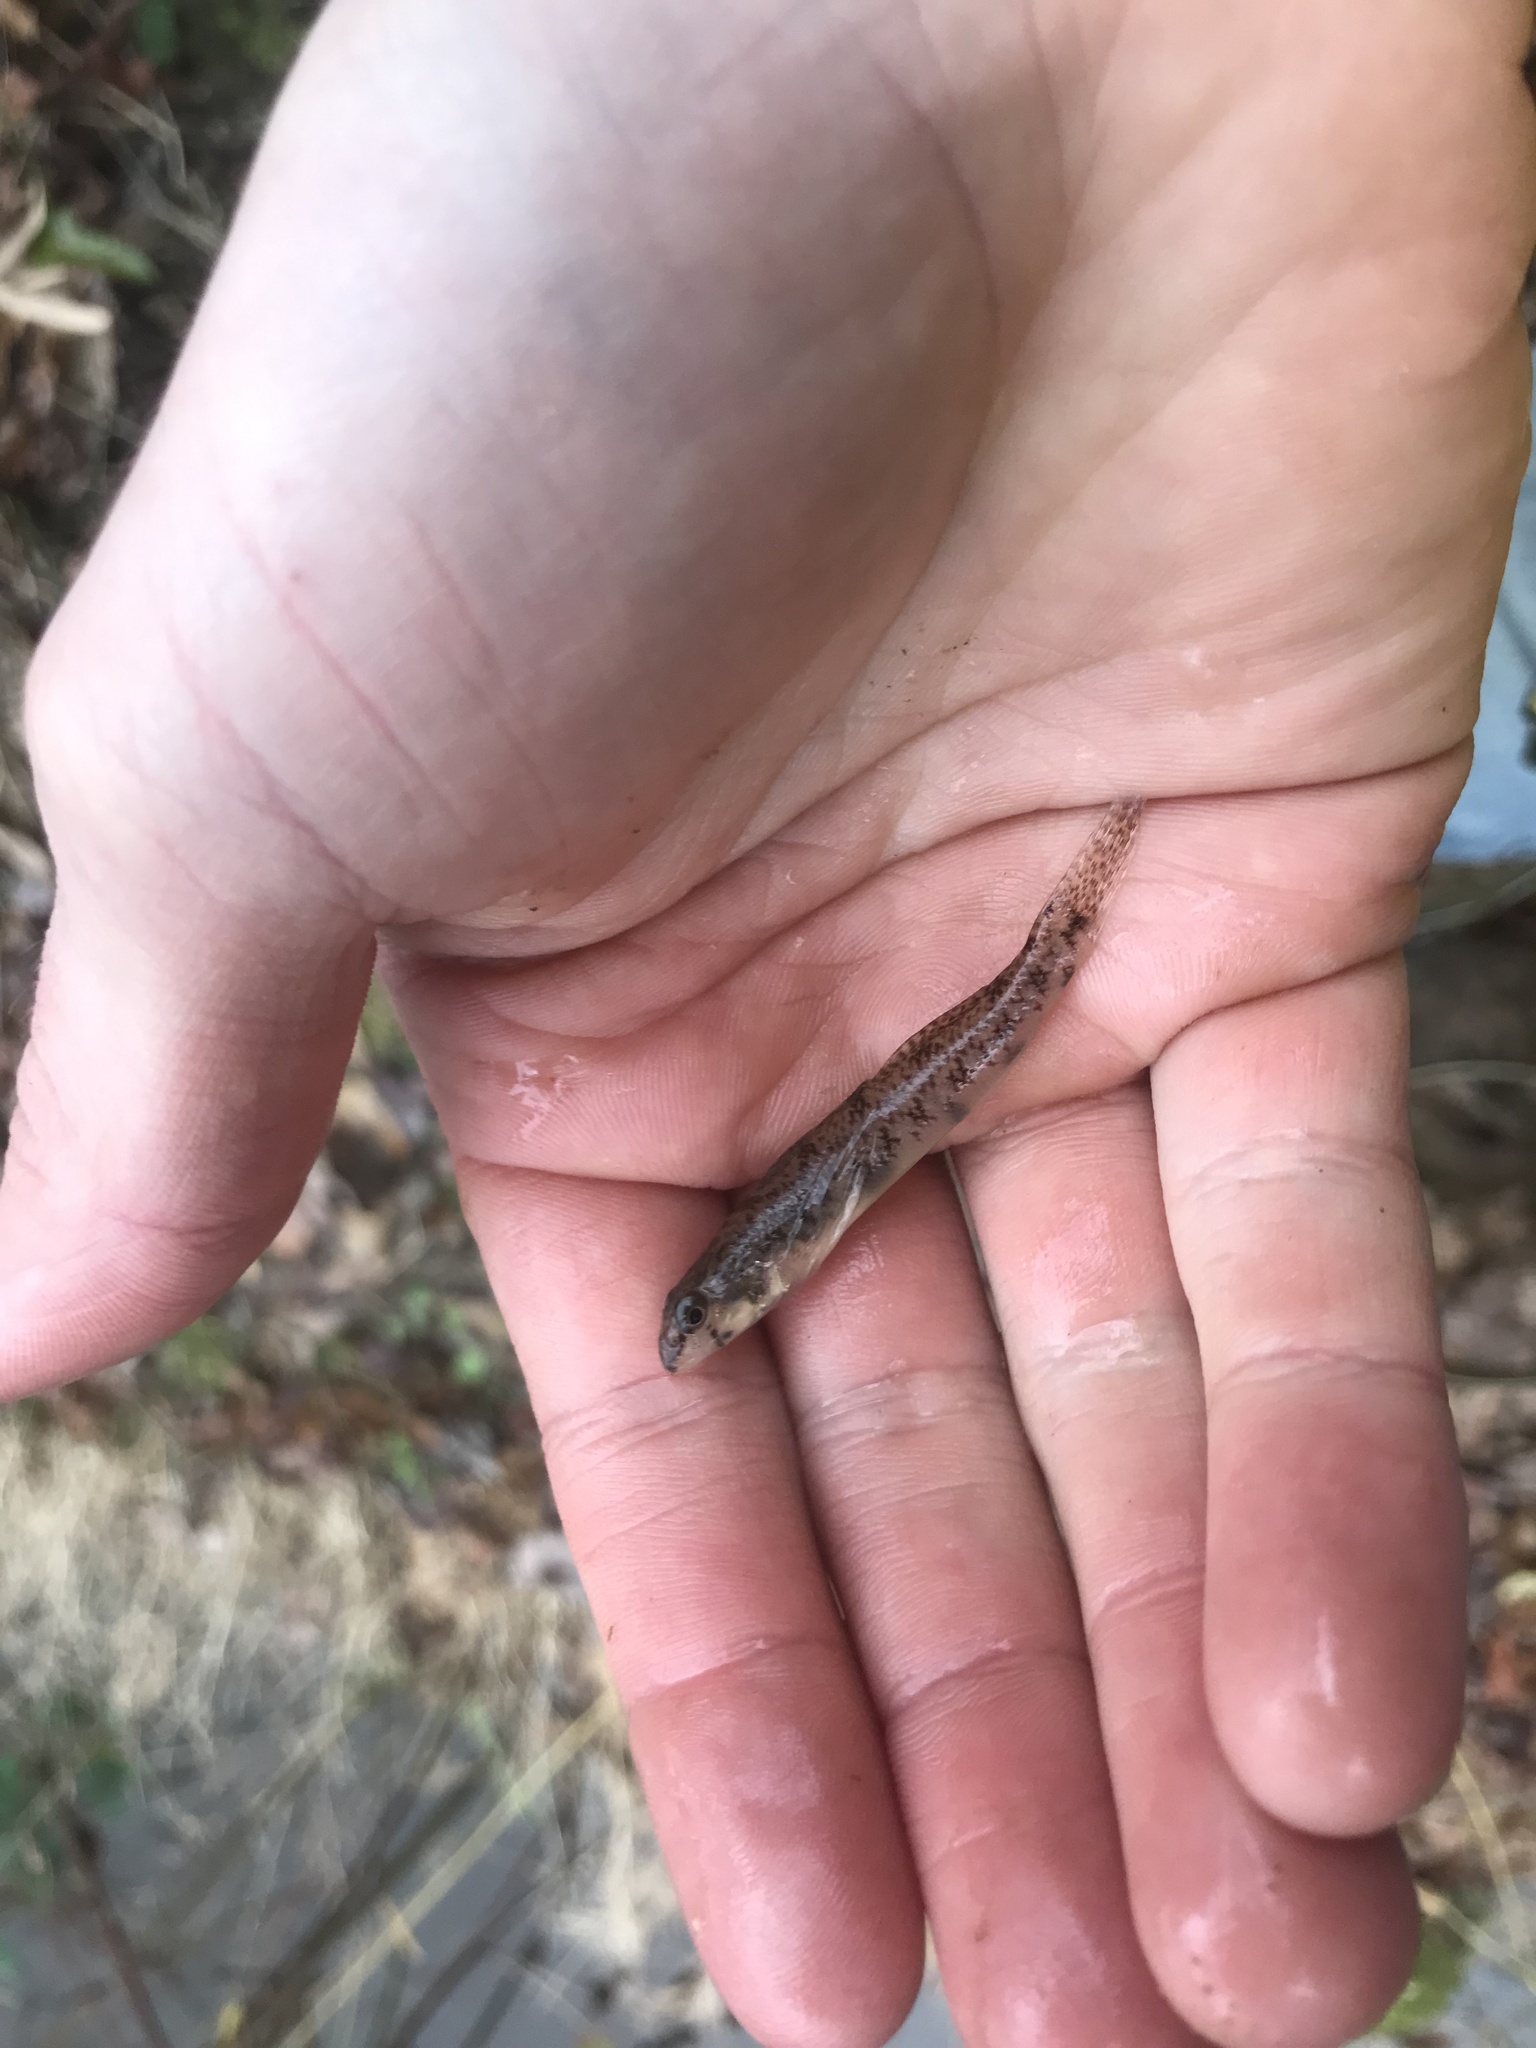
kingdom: Animalia
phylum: Chordata
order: Perciformes
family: Percidae
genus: Etheostoma
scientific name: Etheostoma olmstedi
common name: Tessellated darter
